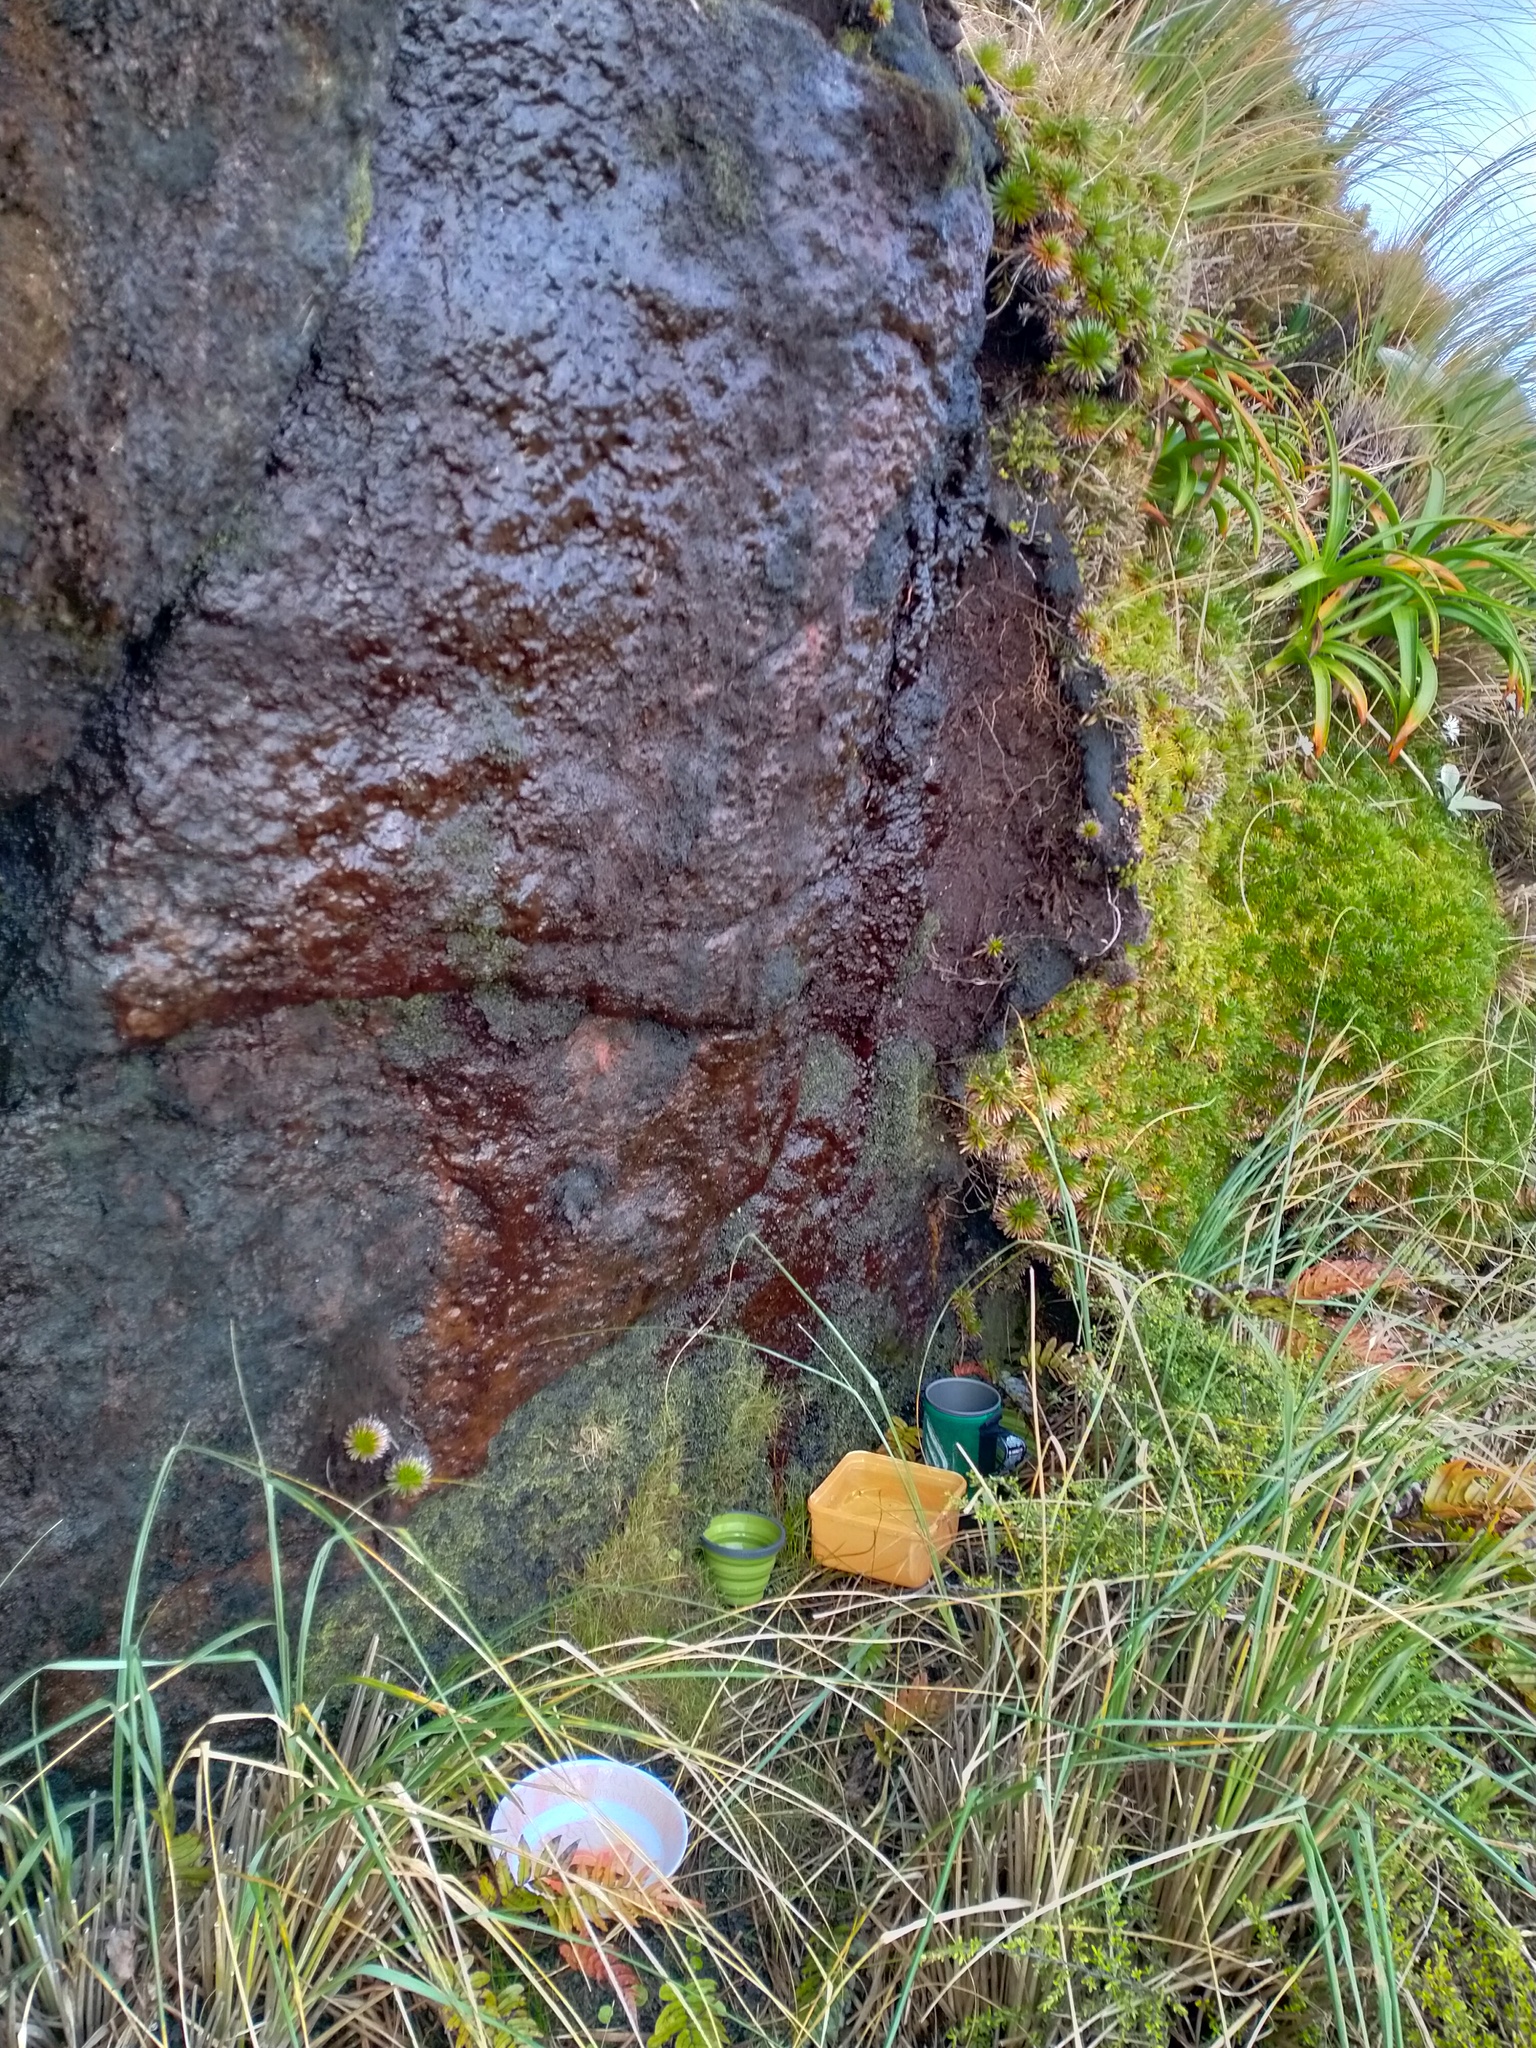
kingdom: Plantae
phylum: Tracheophyta
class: Liliopsida
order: Poales
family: Poaceae
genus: Chionochloa
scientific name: Chionochloa antarctica
